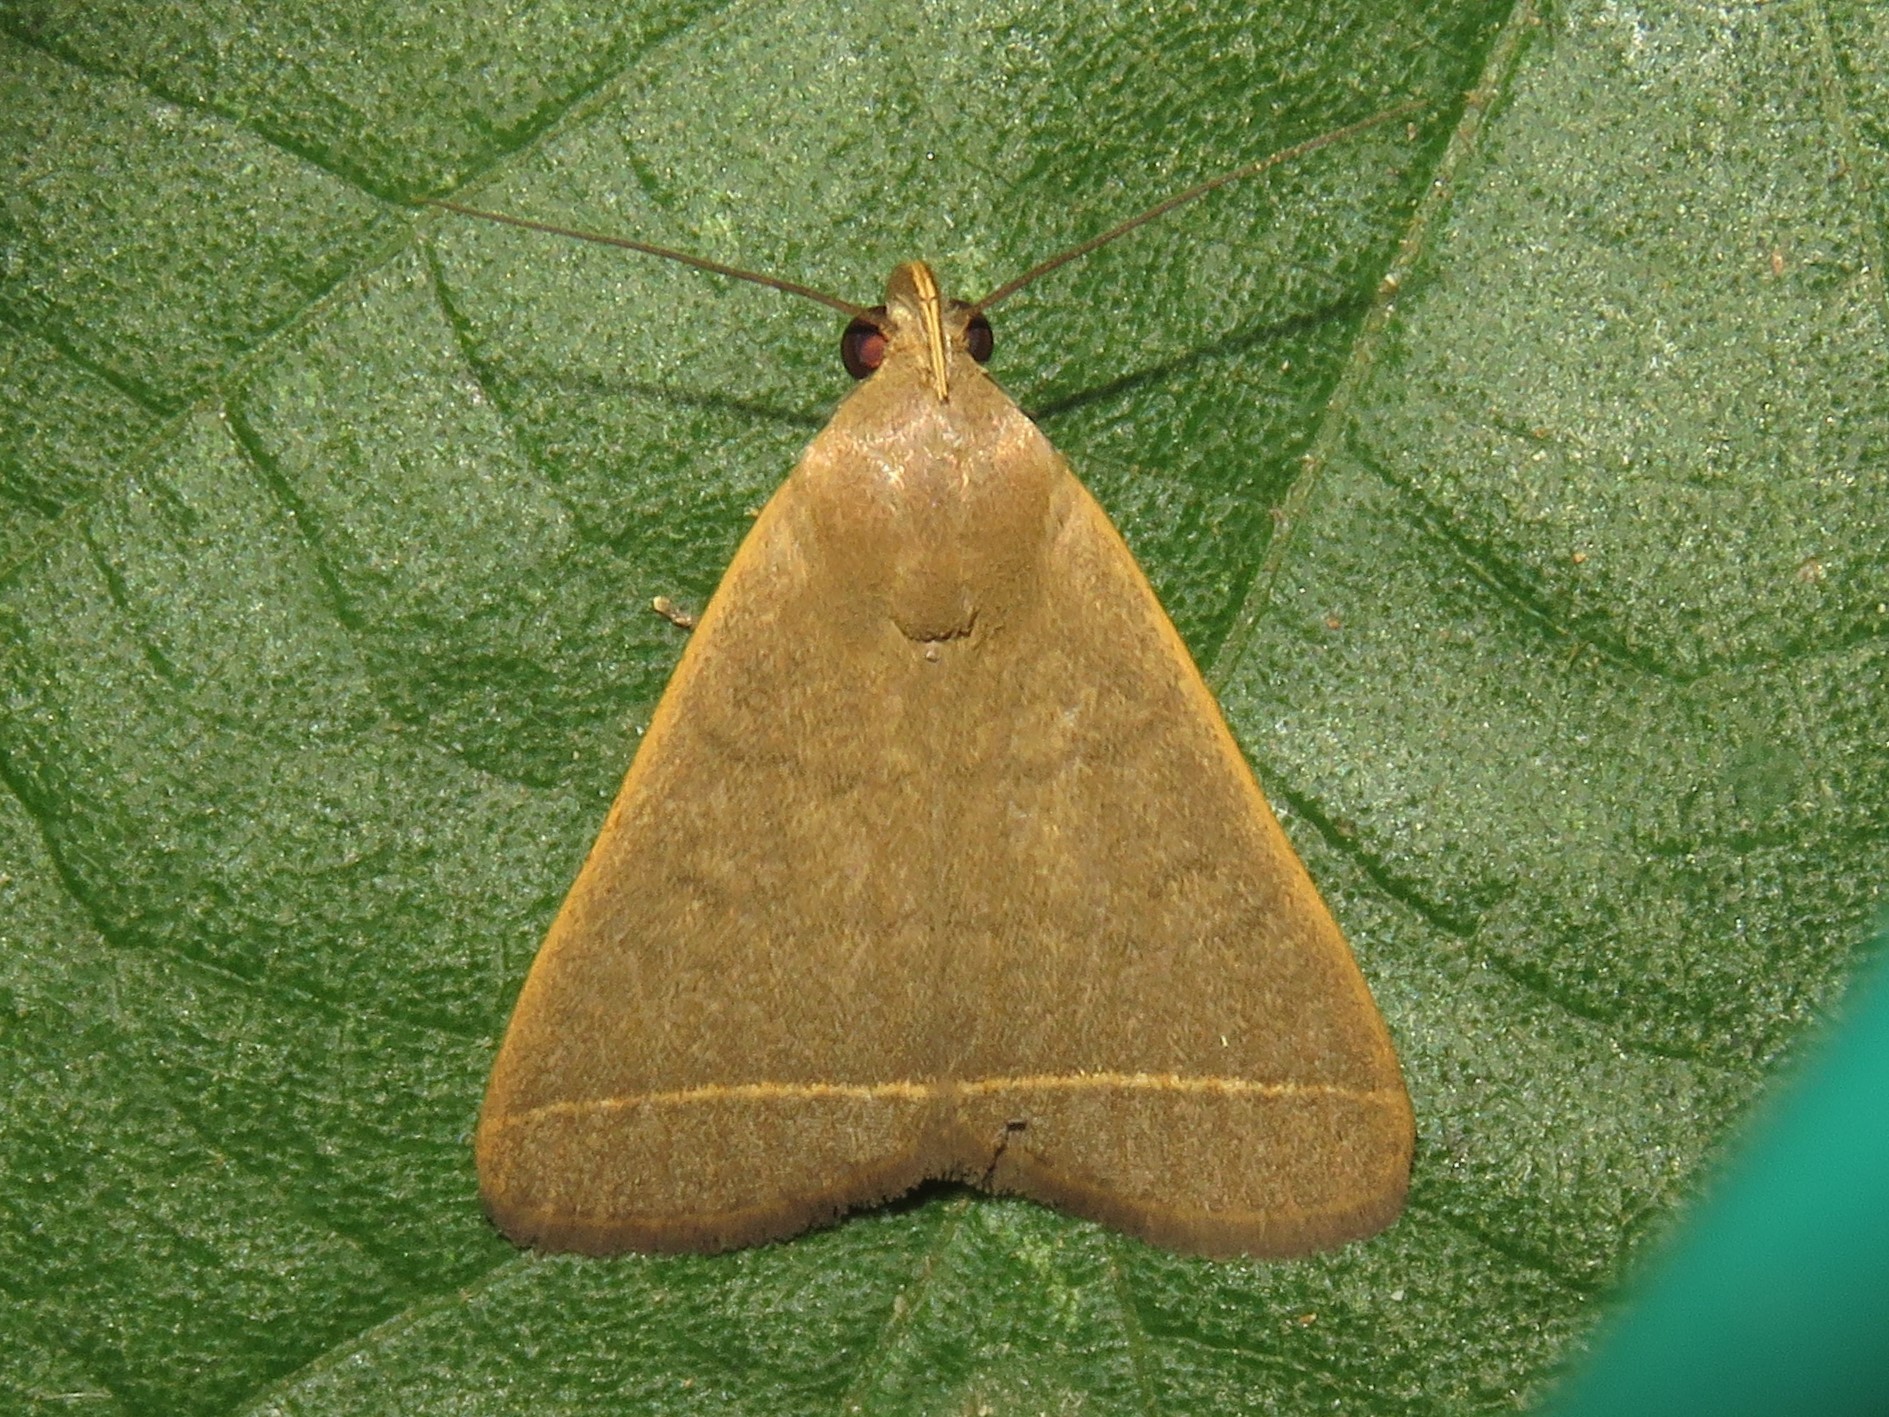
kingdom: Animalia
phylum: Arthropoda
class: Insecta
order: Lepidoptera
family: Erebidae
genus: Simplicia
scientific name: Simplicia cornicalis
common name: Tiki hut litter moth
